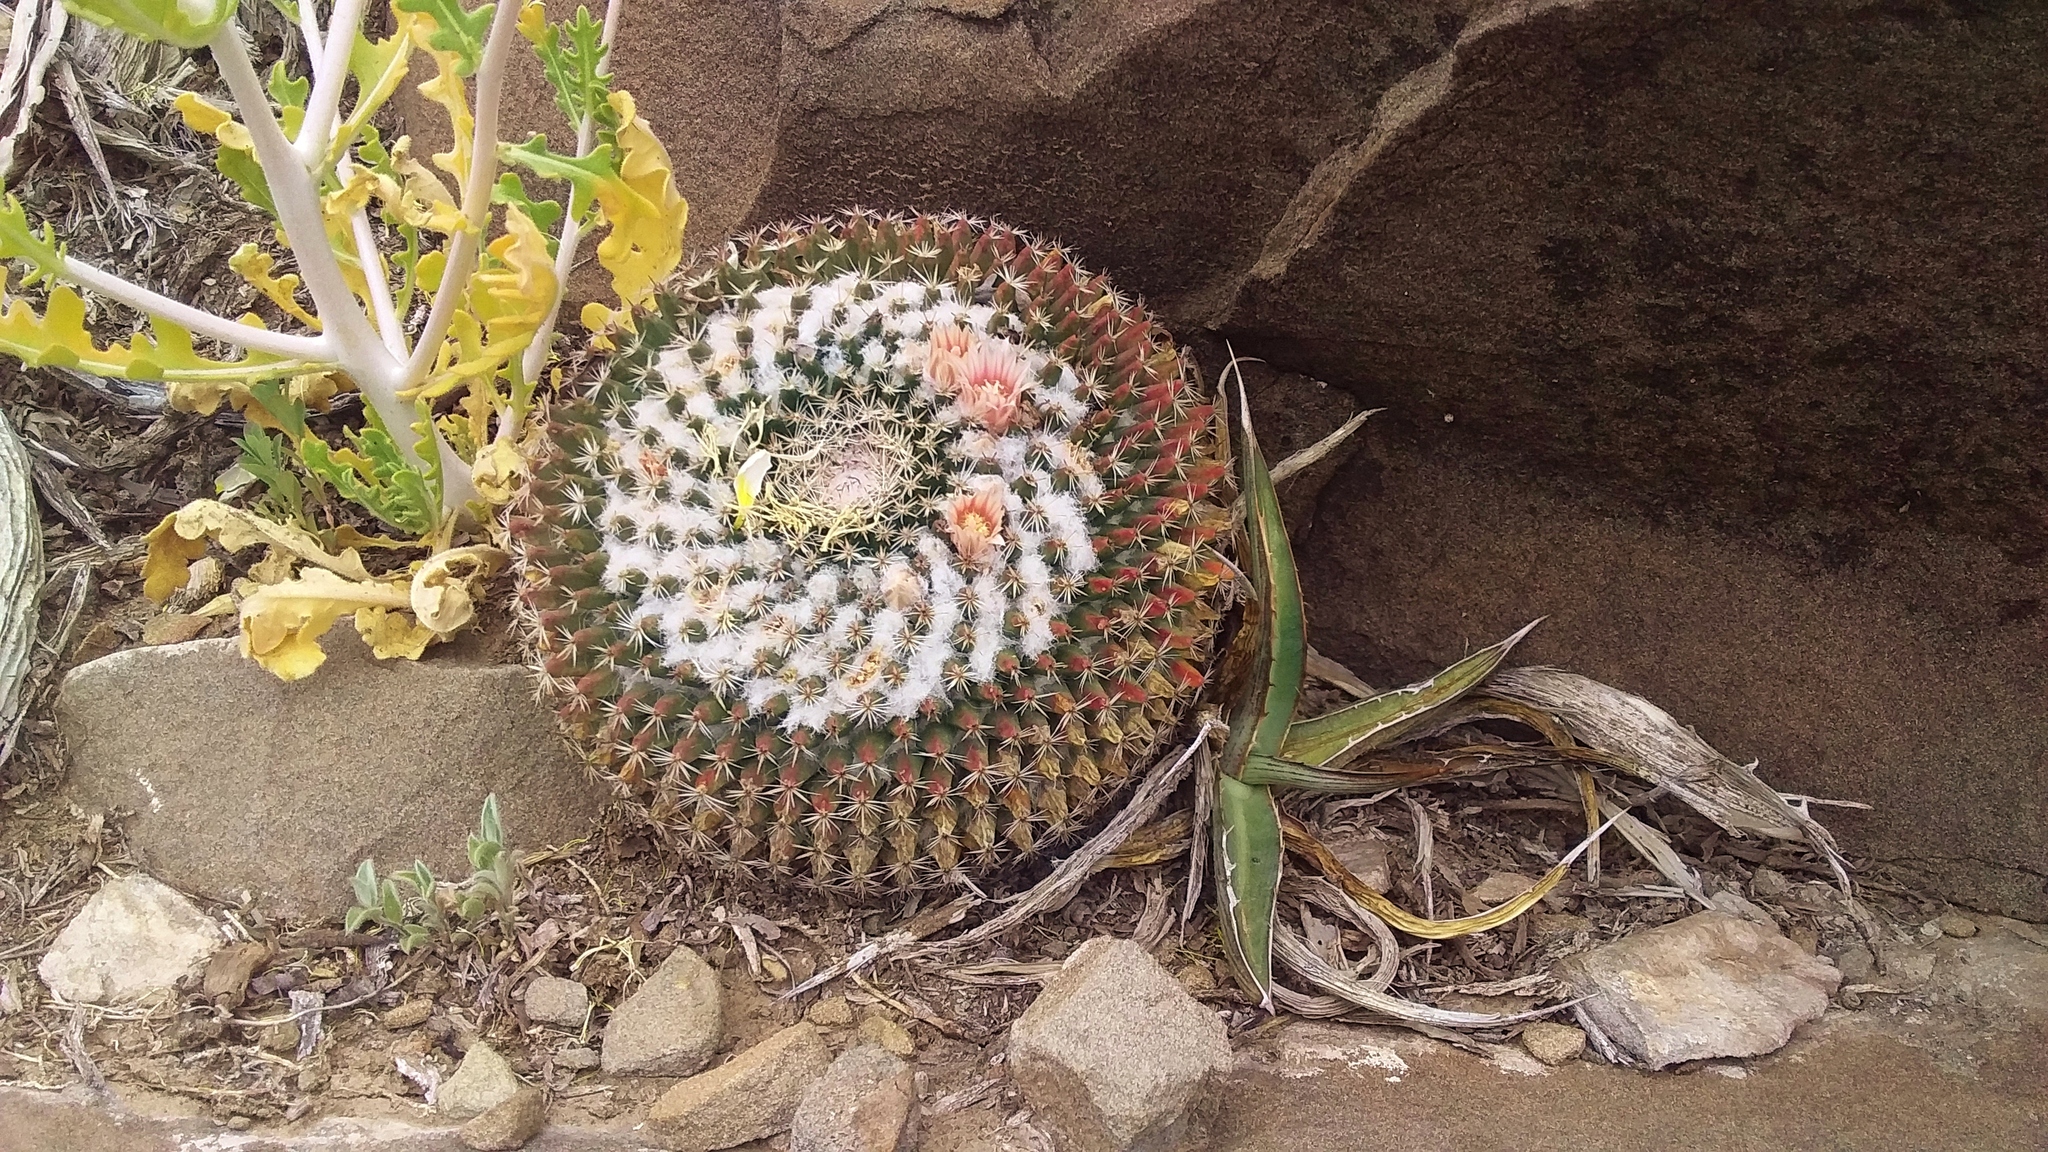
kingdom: Plantae
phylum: Tracheophyta
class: Magnoliopsida
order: Caryophyllales
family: Cactaceae
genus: Mammillaria
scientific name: Mammillaria formosa
